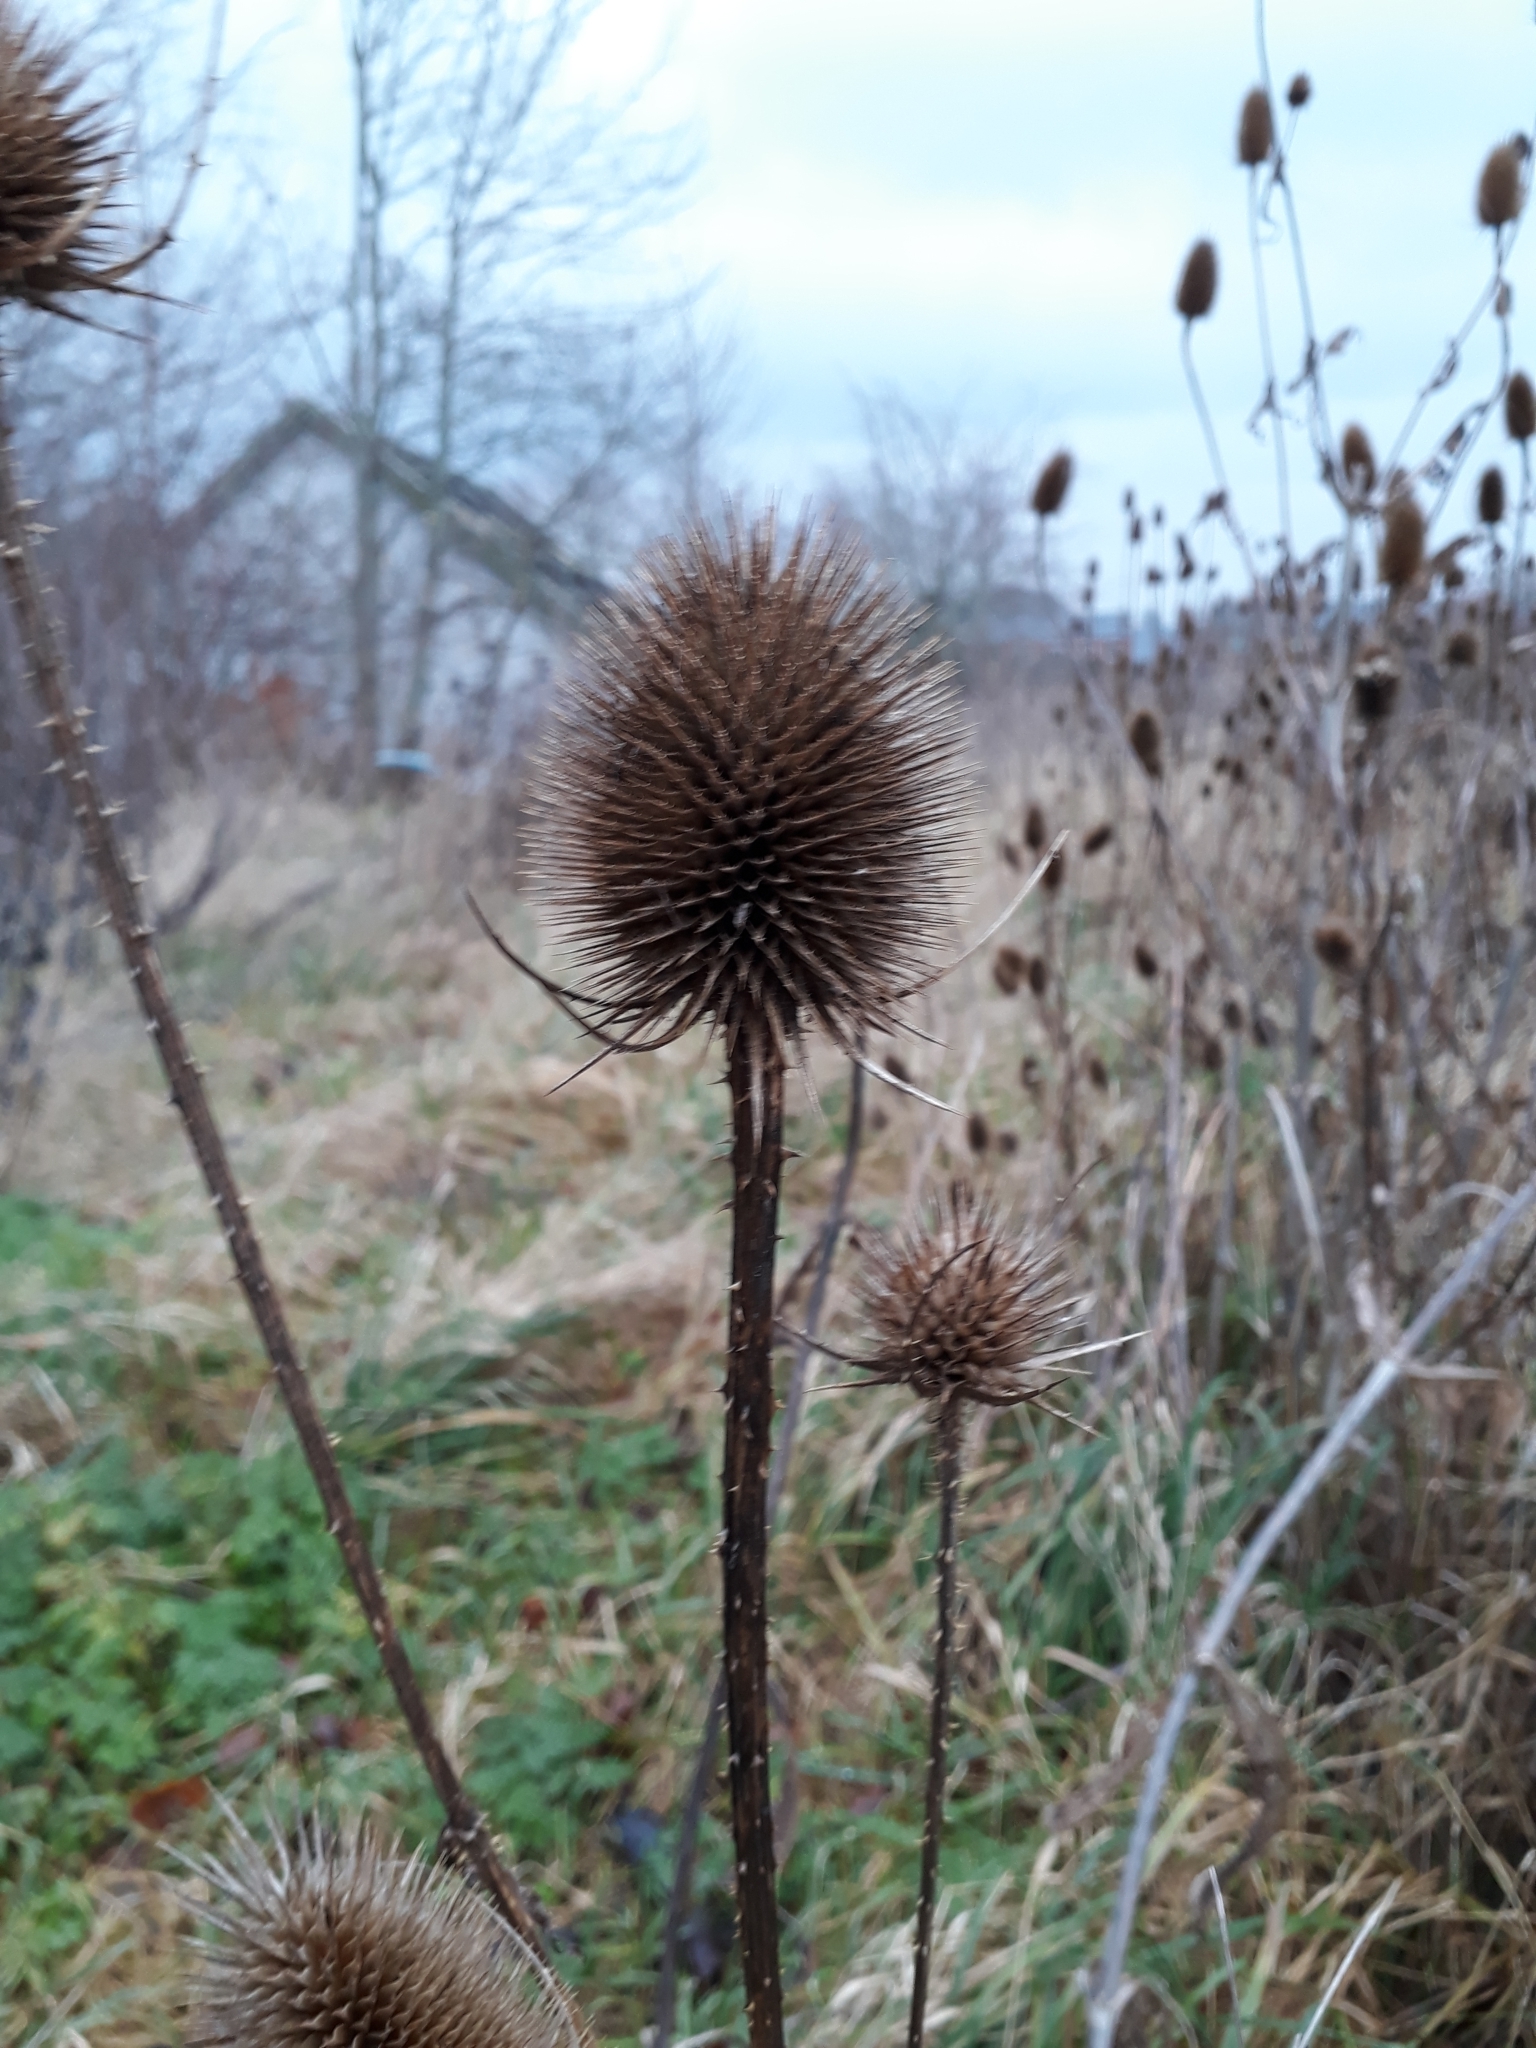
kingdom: Plantae
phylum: Tracheophyta
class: Magnoliopsida
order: Dipsacales
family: Caprifoliaceae
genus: Dipsacus
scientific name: Dipsacus fullonum
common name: Teasel
